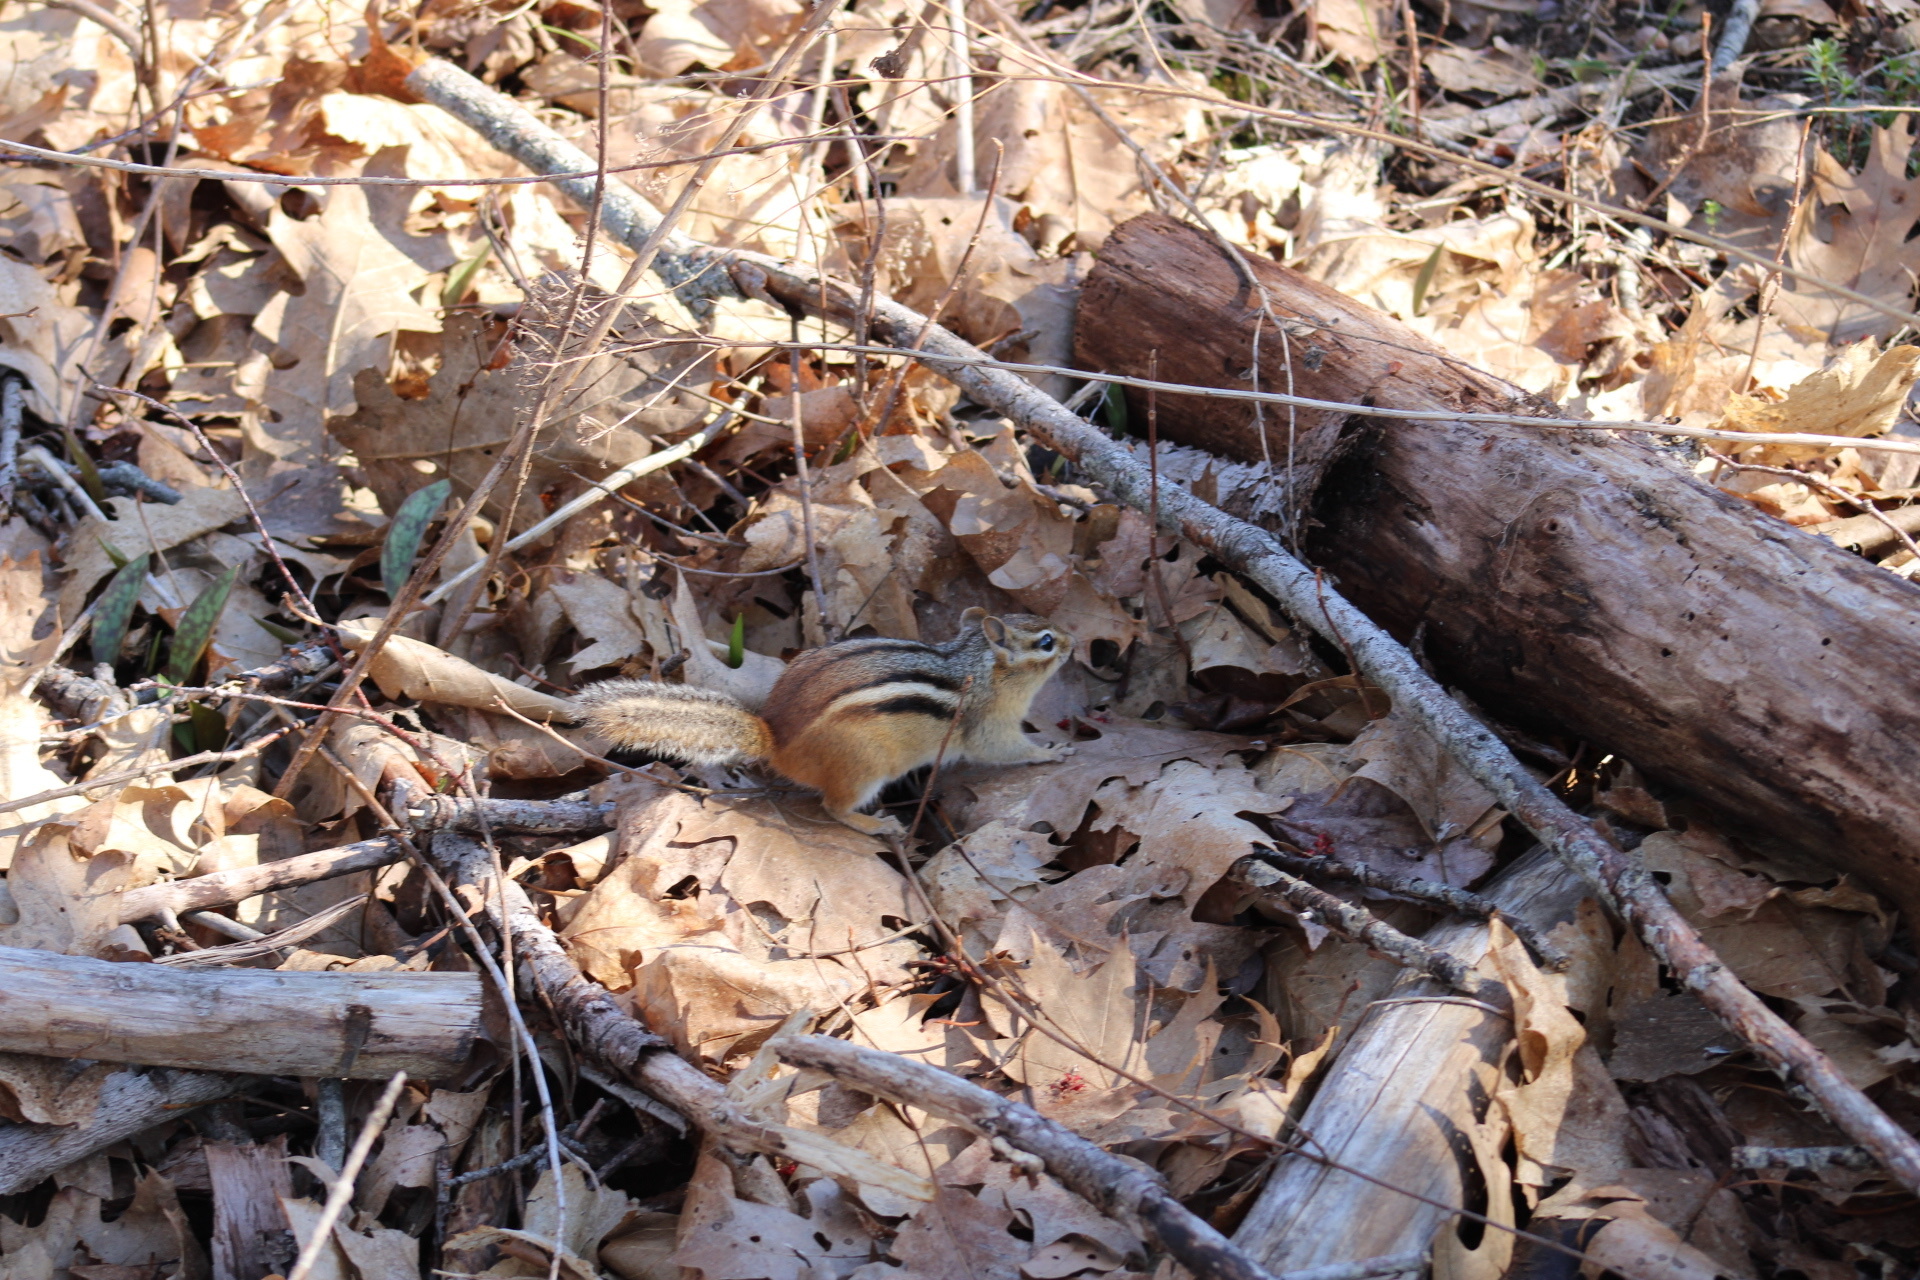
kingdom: Animalia
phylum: Chordata
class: Mammalia
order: Rodentia
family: Sciuridae
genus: Tamias
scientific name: Tamias striatus
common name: Eastern chipmunk
